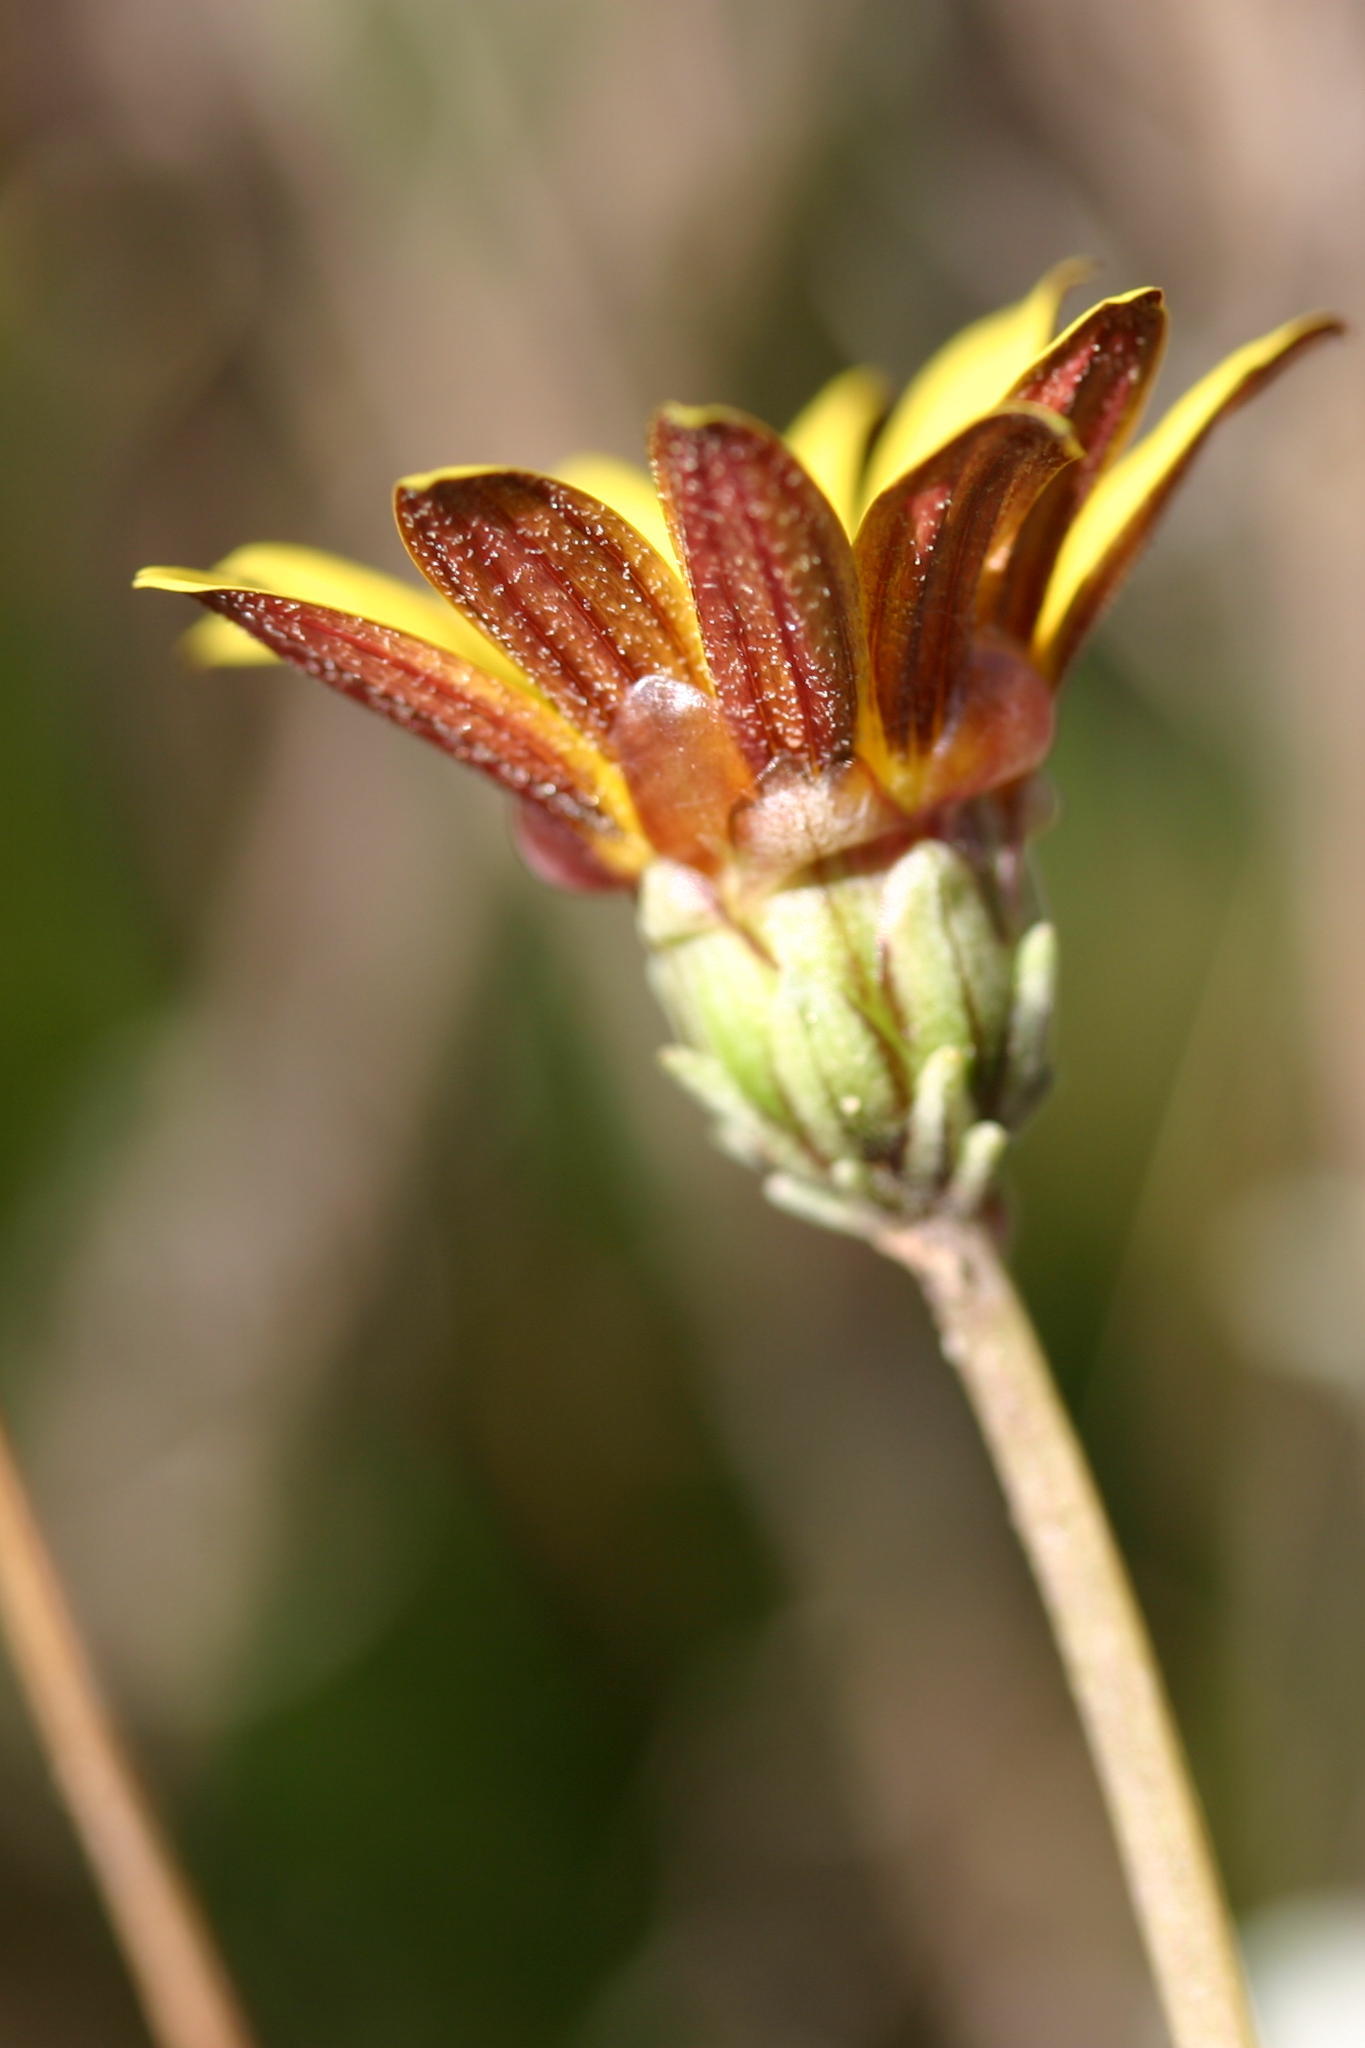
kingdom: Plantae
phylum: Tracheophyta
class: Magnoliopsida
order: Asterales
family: Asteraceae
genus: Arctotis
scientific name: Arctotis linearis
